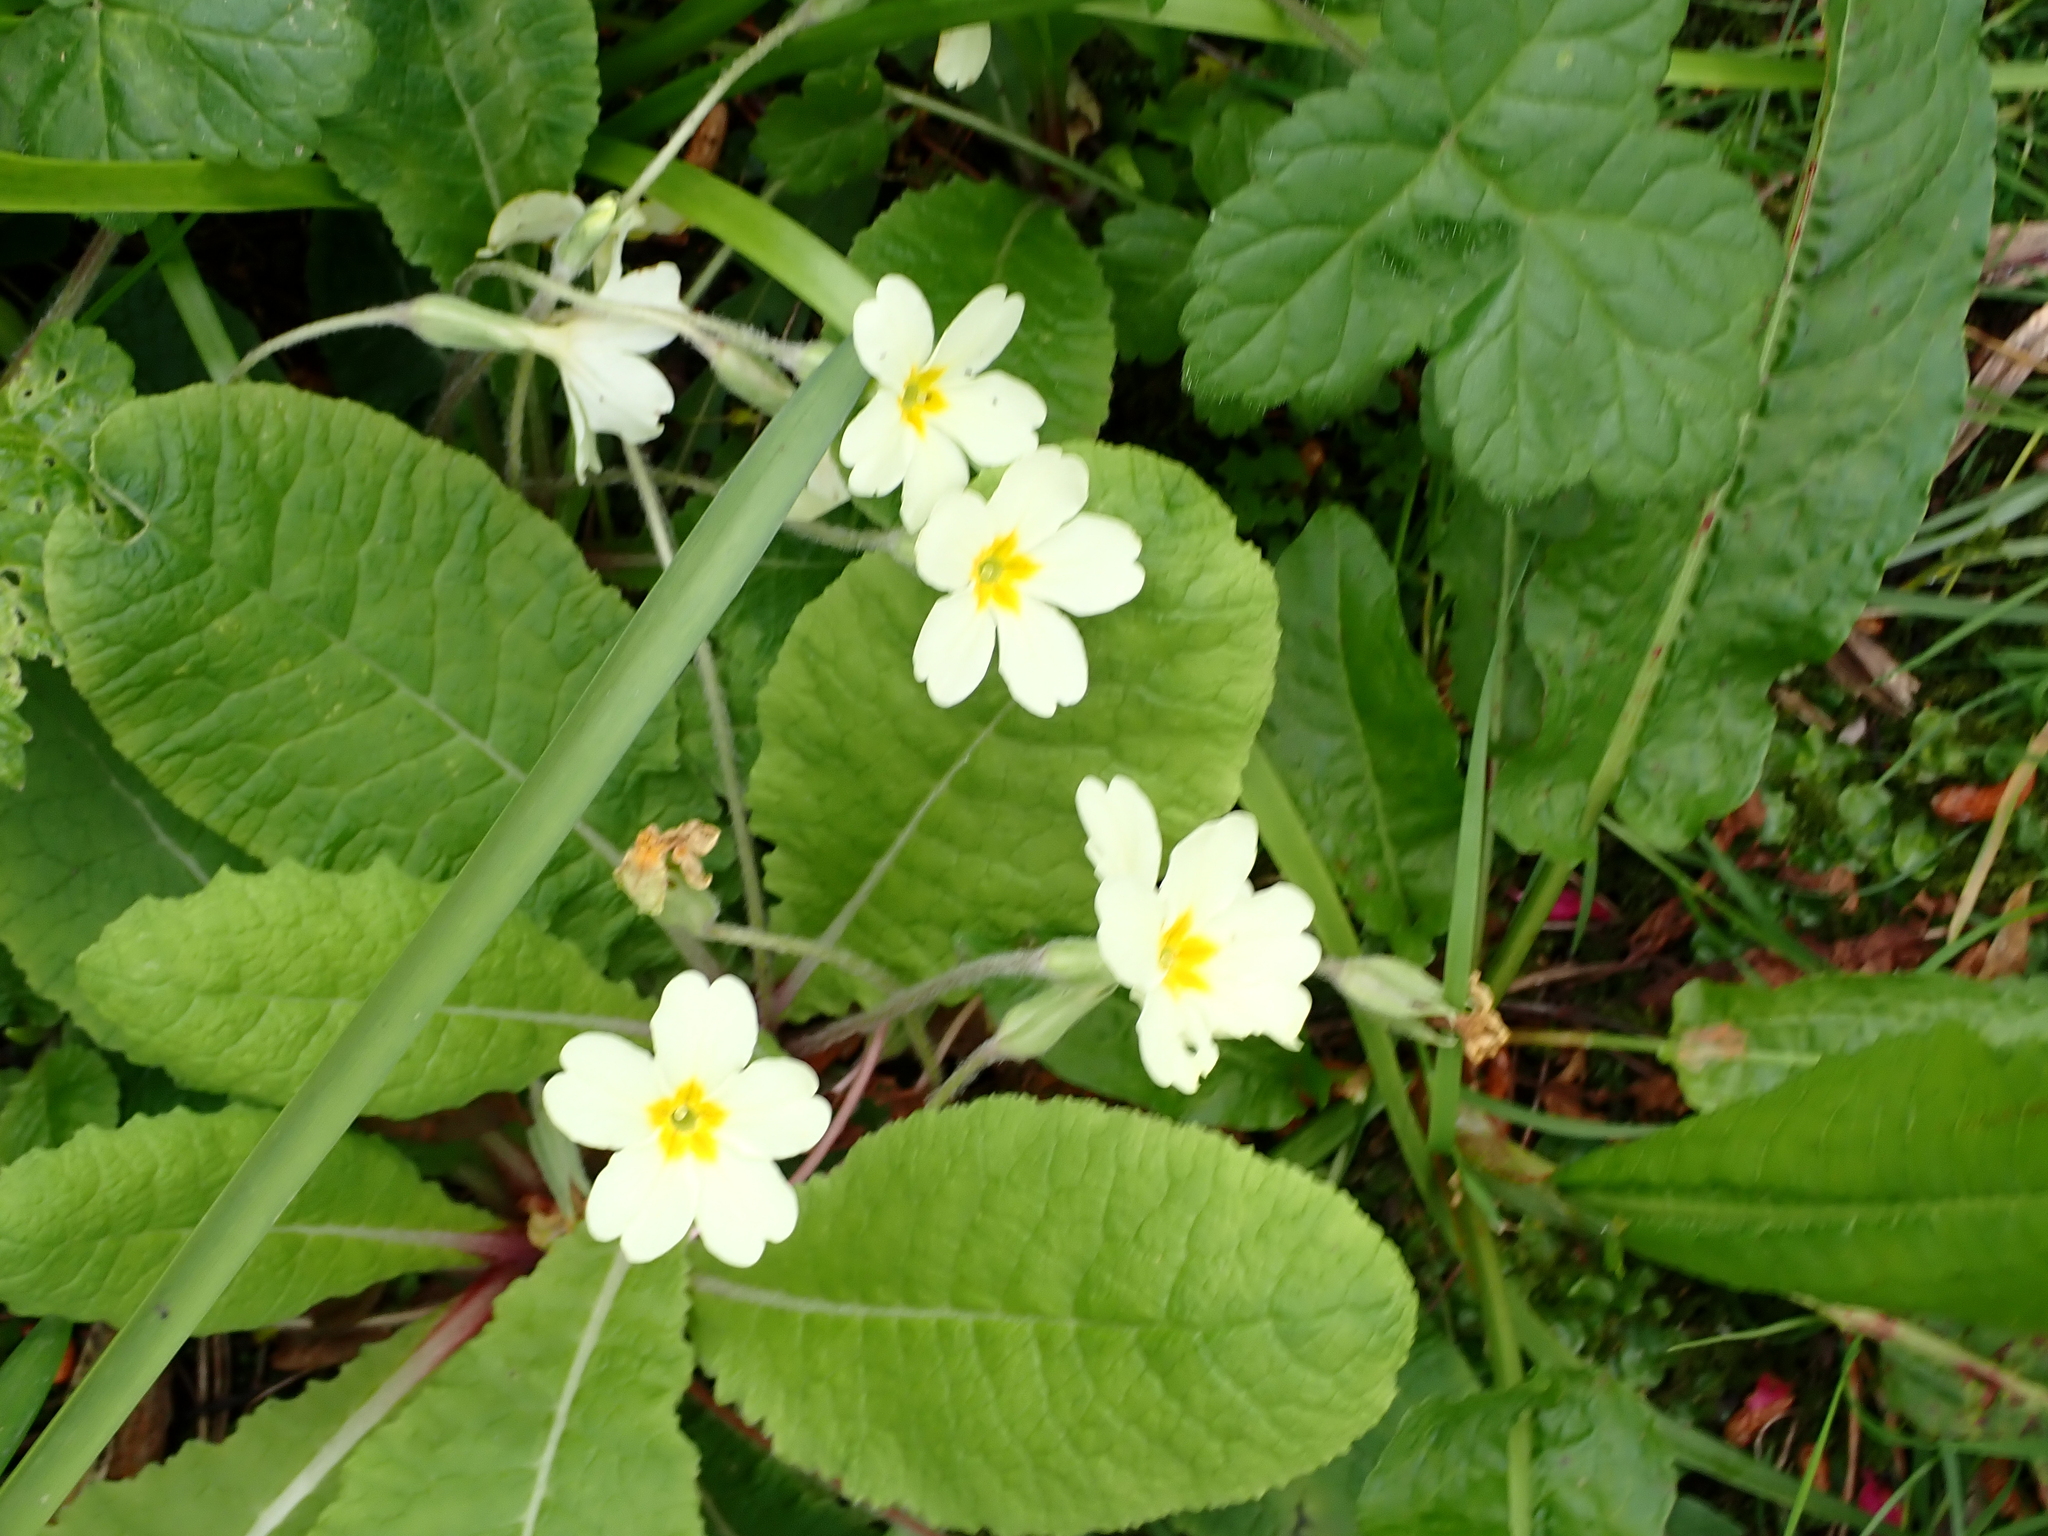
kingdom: Plantae
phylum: Tracheophyta
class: Magnoliopsida
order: Ericales
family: Primulaceae
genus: Primula
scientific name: Primula vulgaris
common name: Primrose
